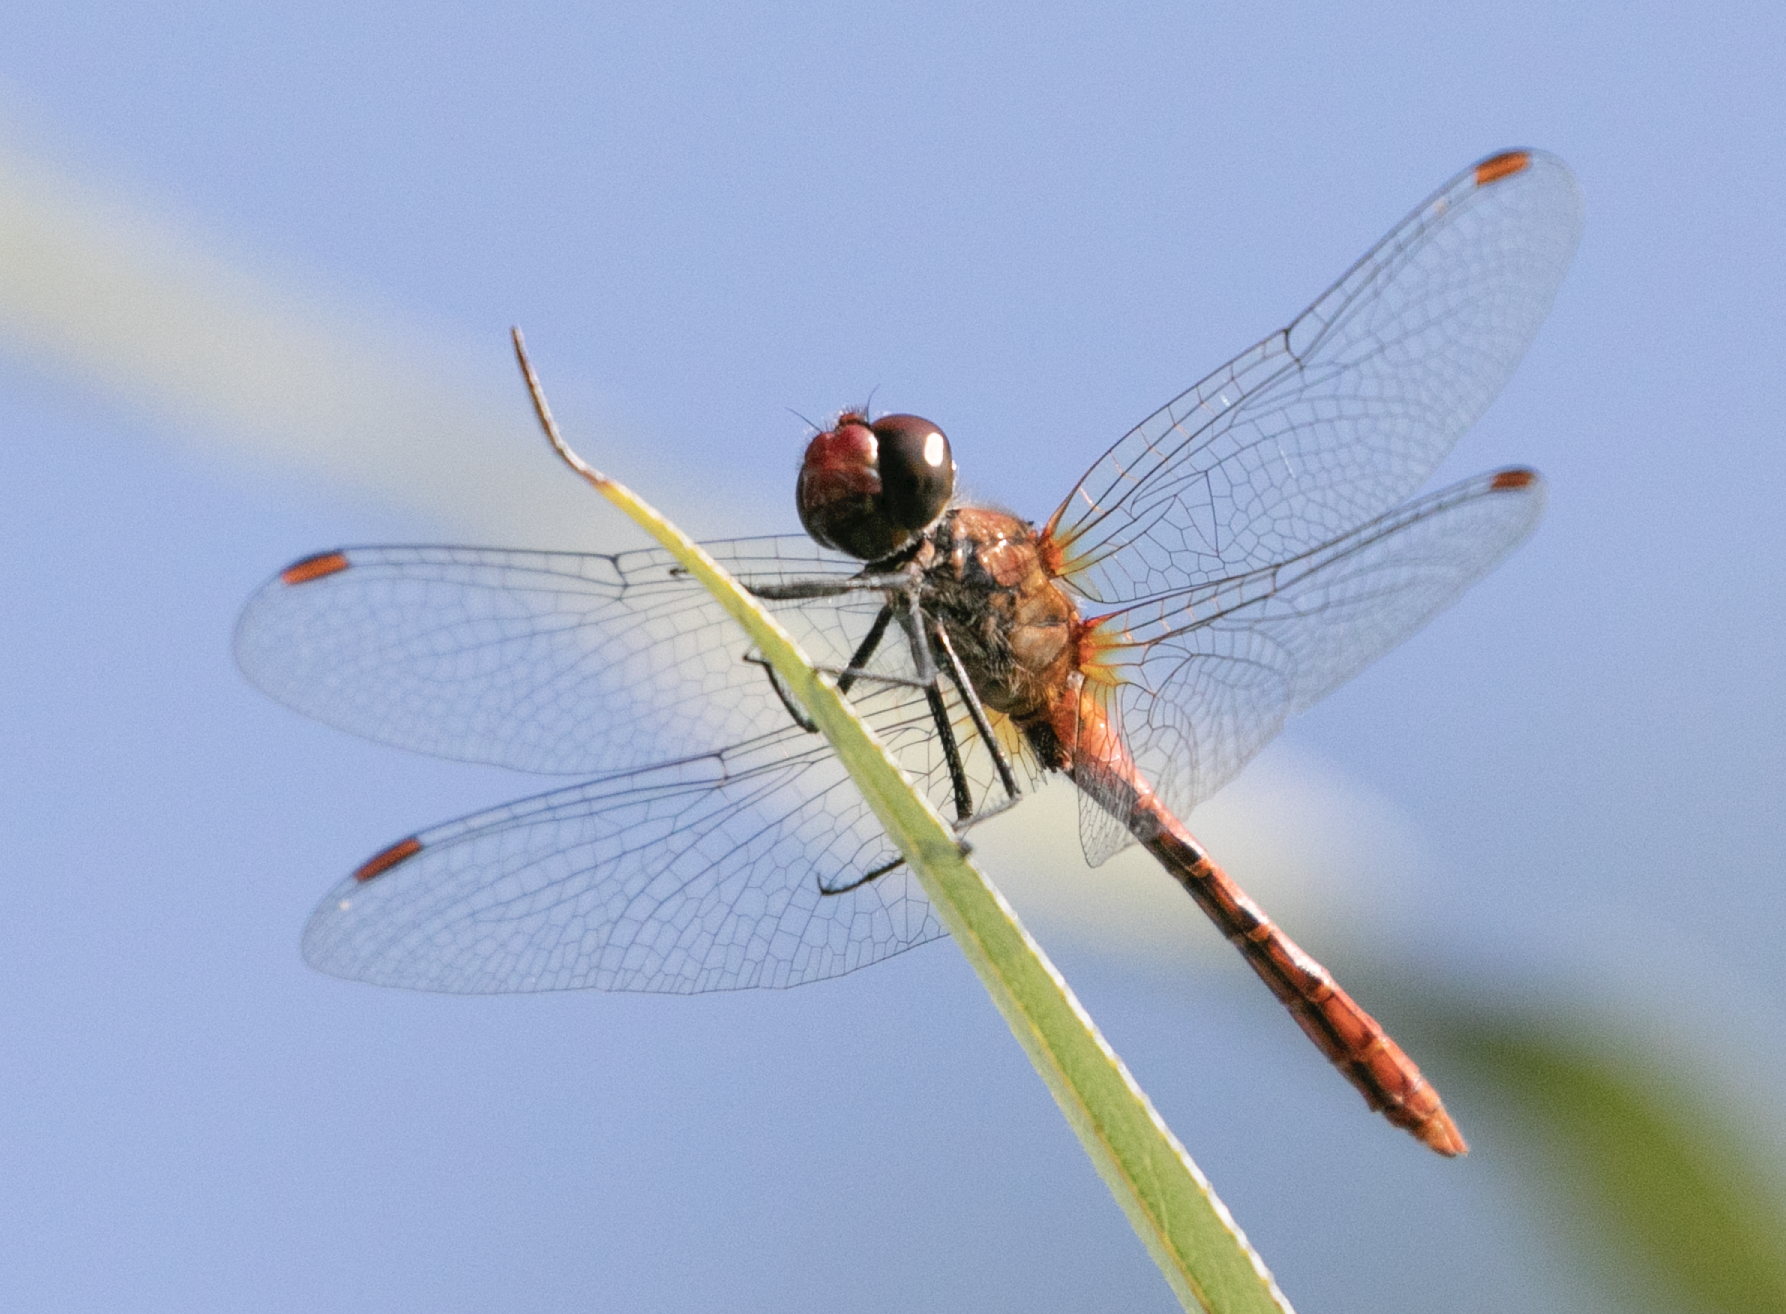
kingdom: Animalia
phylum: Arthropoda
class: Insecta
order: Odonata
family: Libellulidae
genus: Sympetrum
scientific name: Sympetrum sanguineum
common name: Ruddy darter
